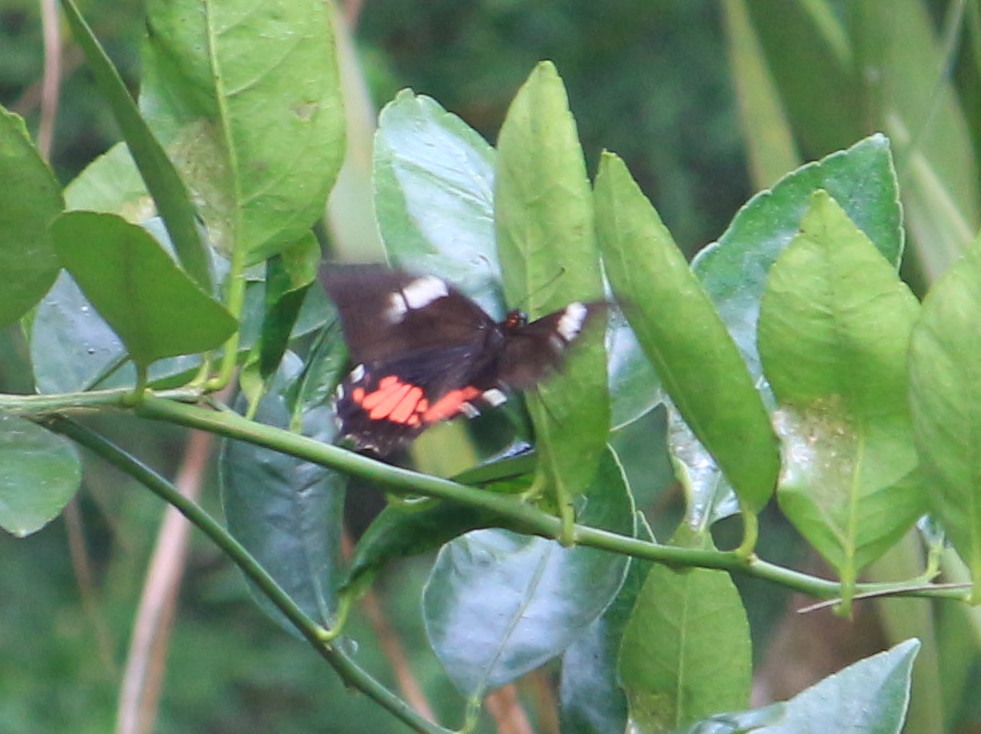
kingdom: Animalia
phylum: Arthropoda
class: Insecta
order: Lepidoptera
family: Papilionidae
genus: Papilio
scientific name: Papilio anchisiades
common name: Idaes swallowtail
